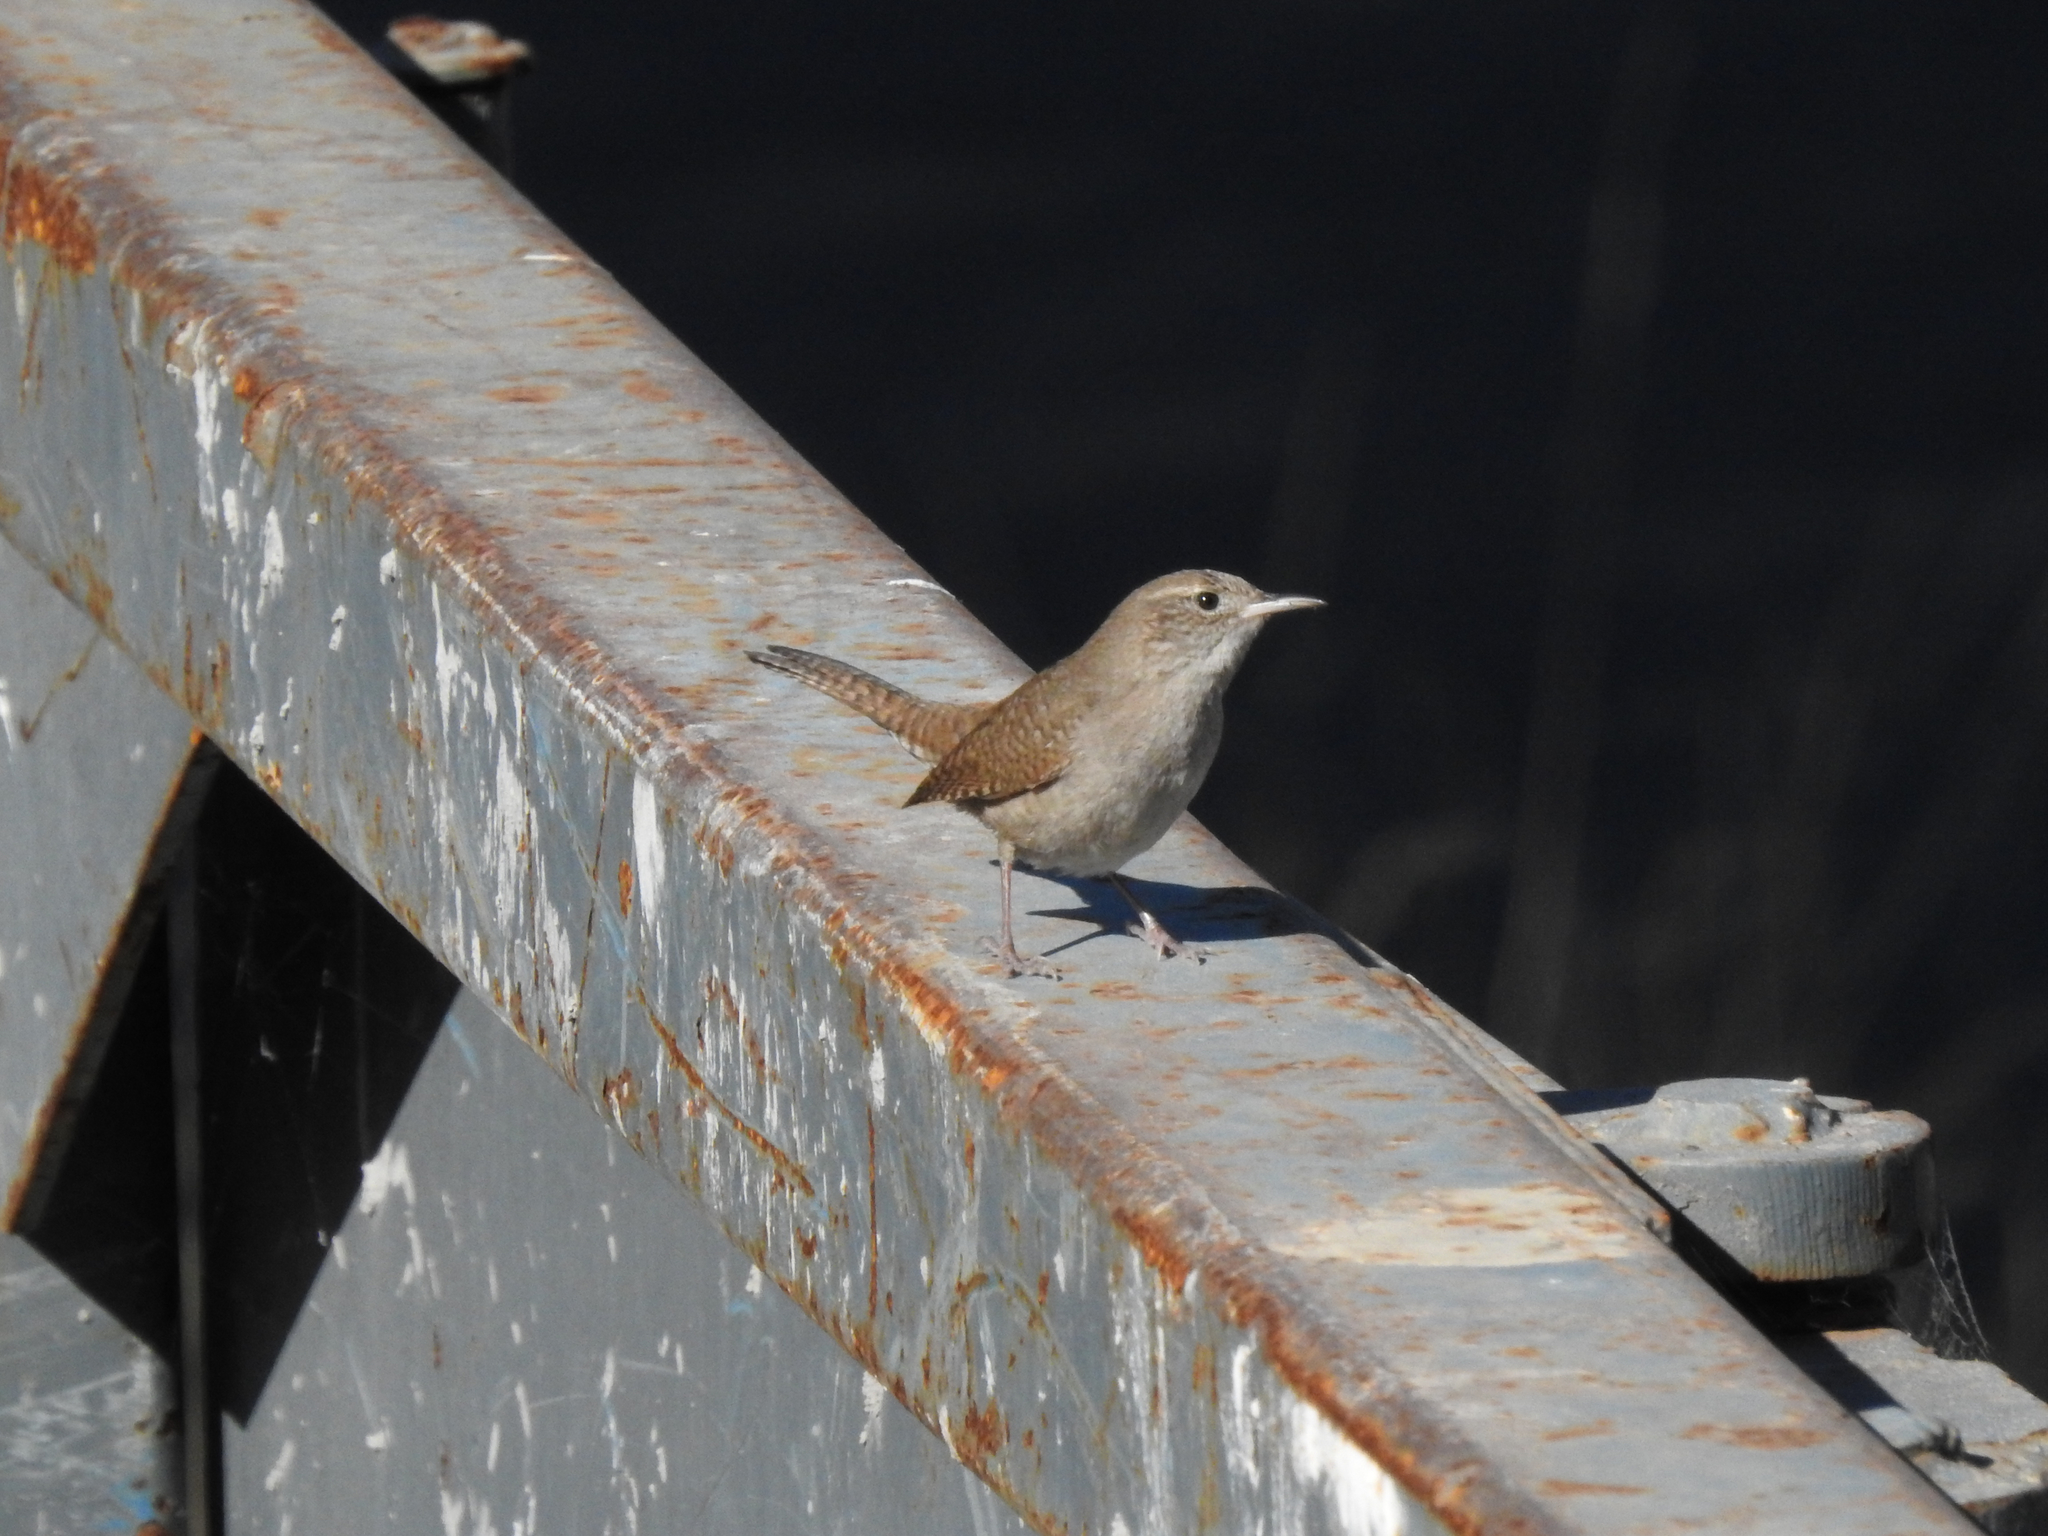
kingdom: Animalia
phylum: Chordata
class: Aves
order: Passeriformes
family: Troglodytidae
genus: Troglodytes
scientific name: Troglodytes aedon
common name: House wren
